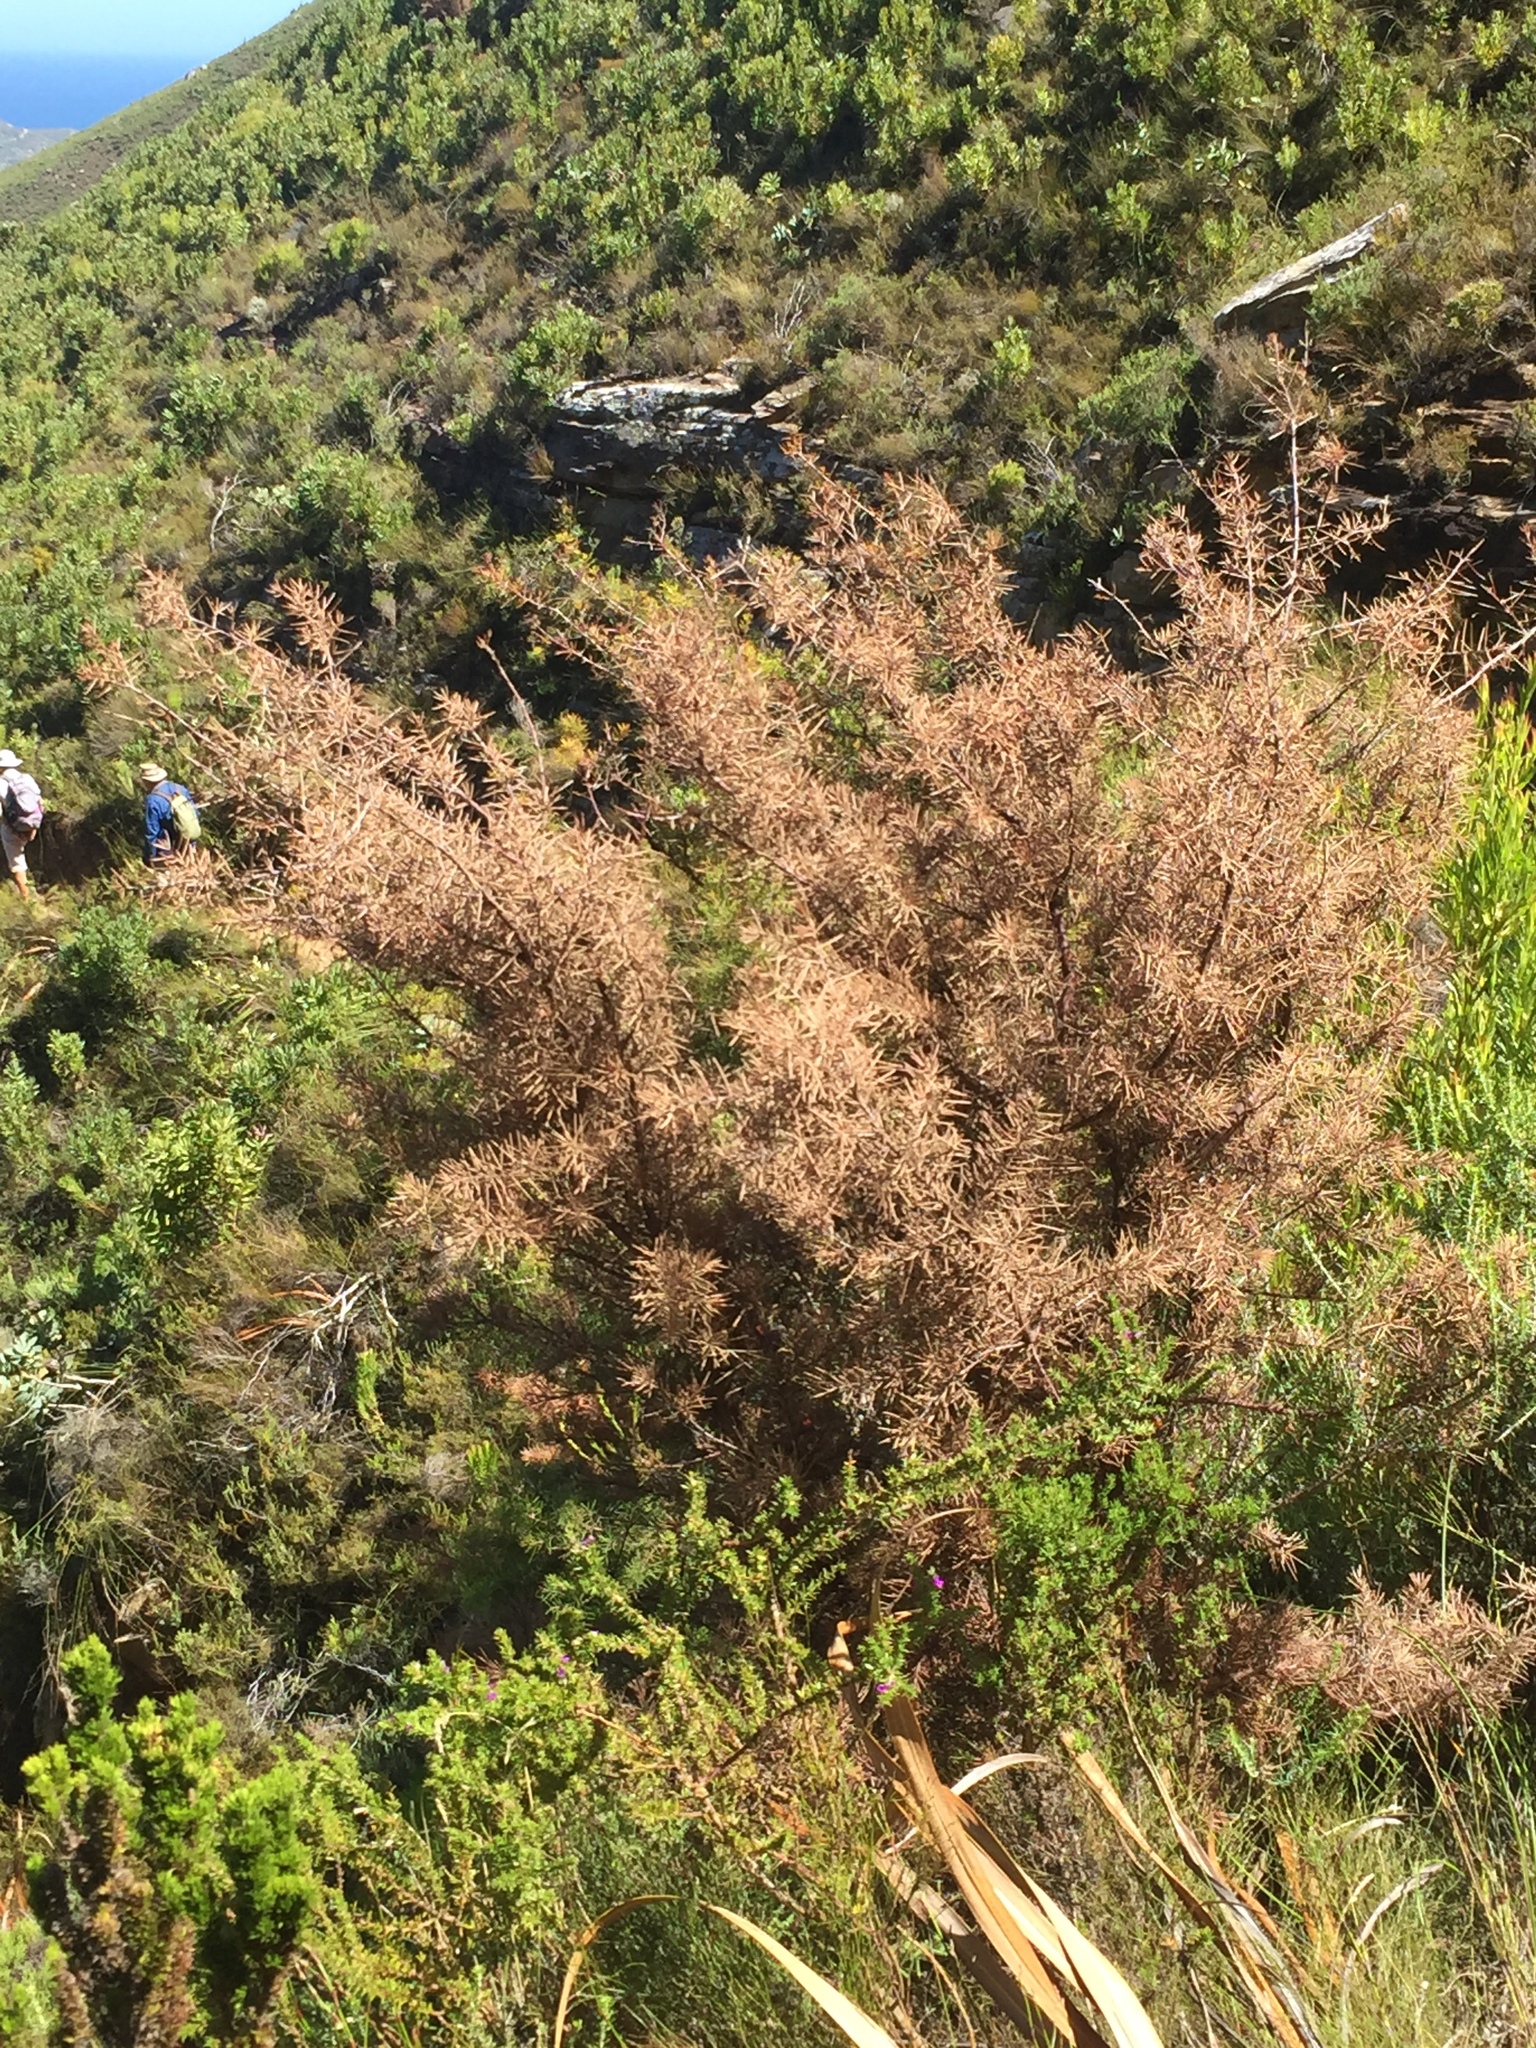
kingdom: Plantae
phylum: Tracheophyta
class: Magnoliopsida
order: Proteales
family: Proteaceae
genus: Hakea
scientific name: Hakea sericea
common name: Needle bush
